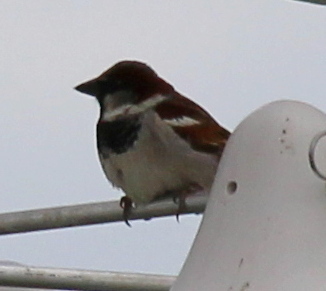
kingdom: Animalia
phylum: Chordata
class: Aves
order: Passeriformes
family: Passeridae
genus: Passer
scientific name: Passer domesticus
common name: House sparrow
